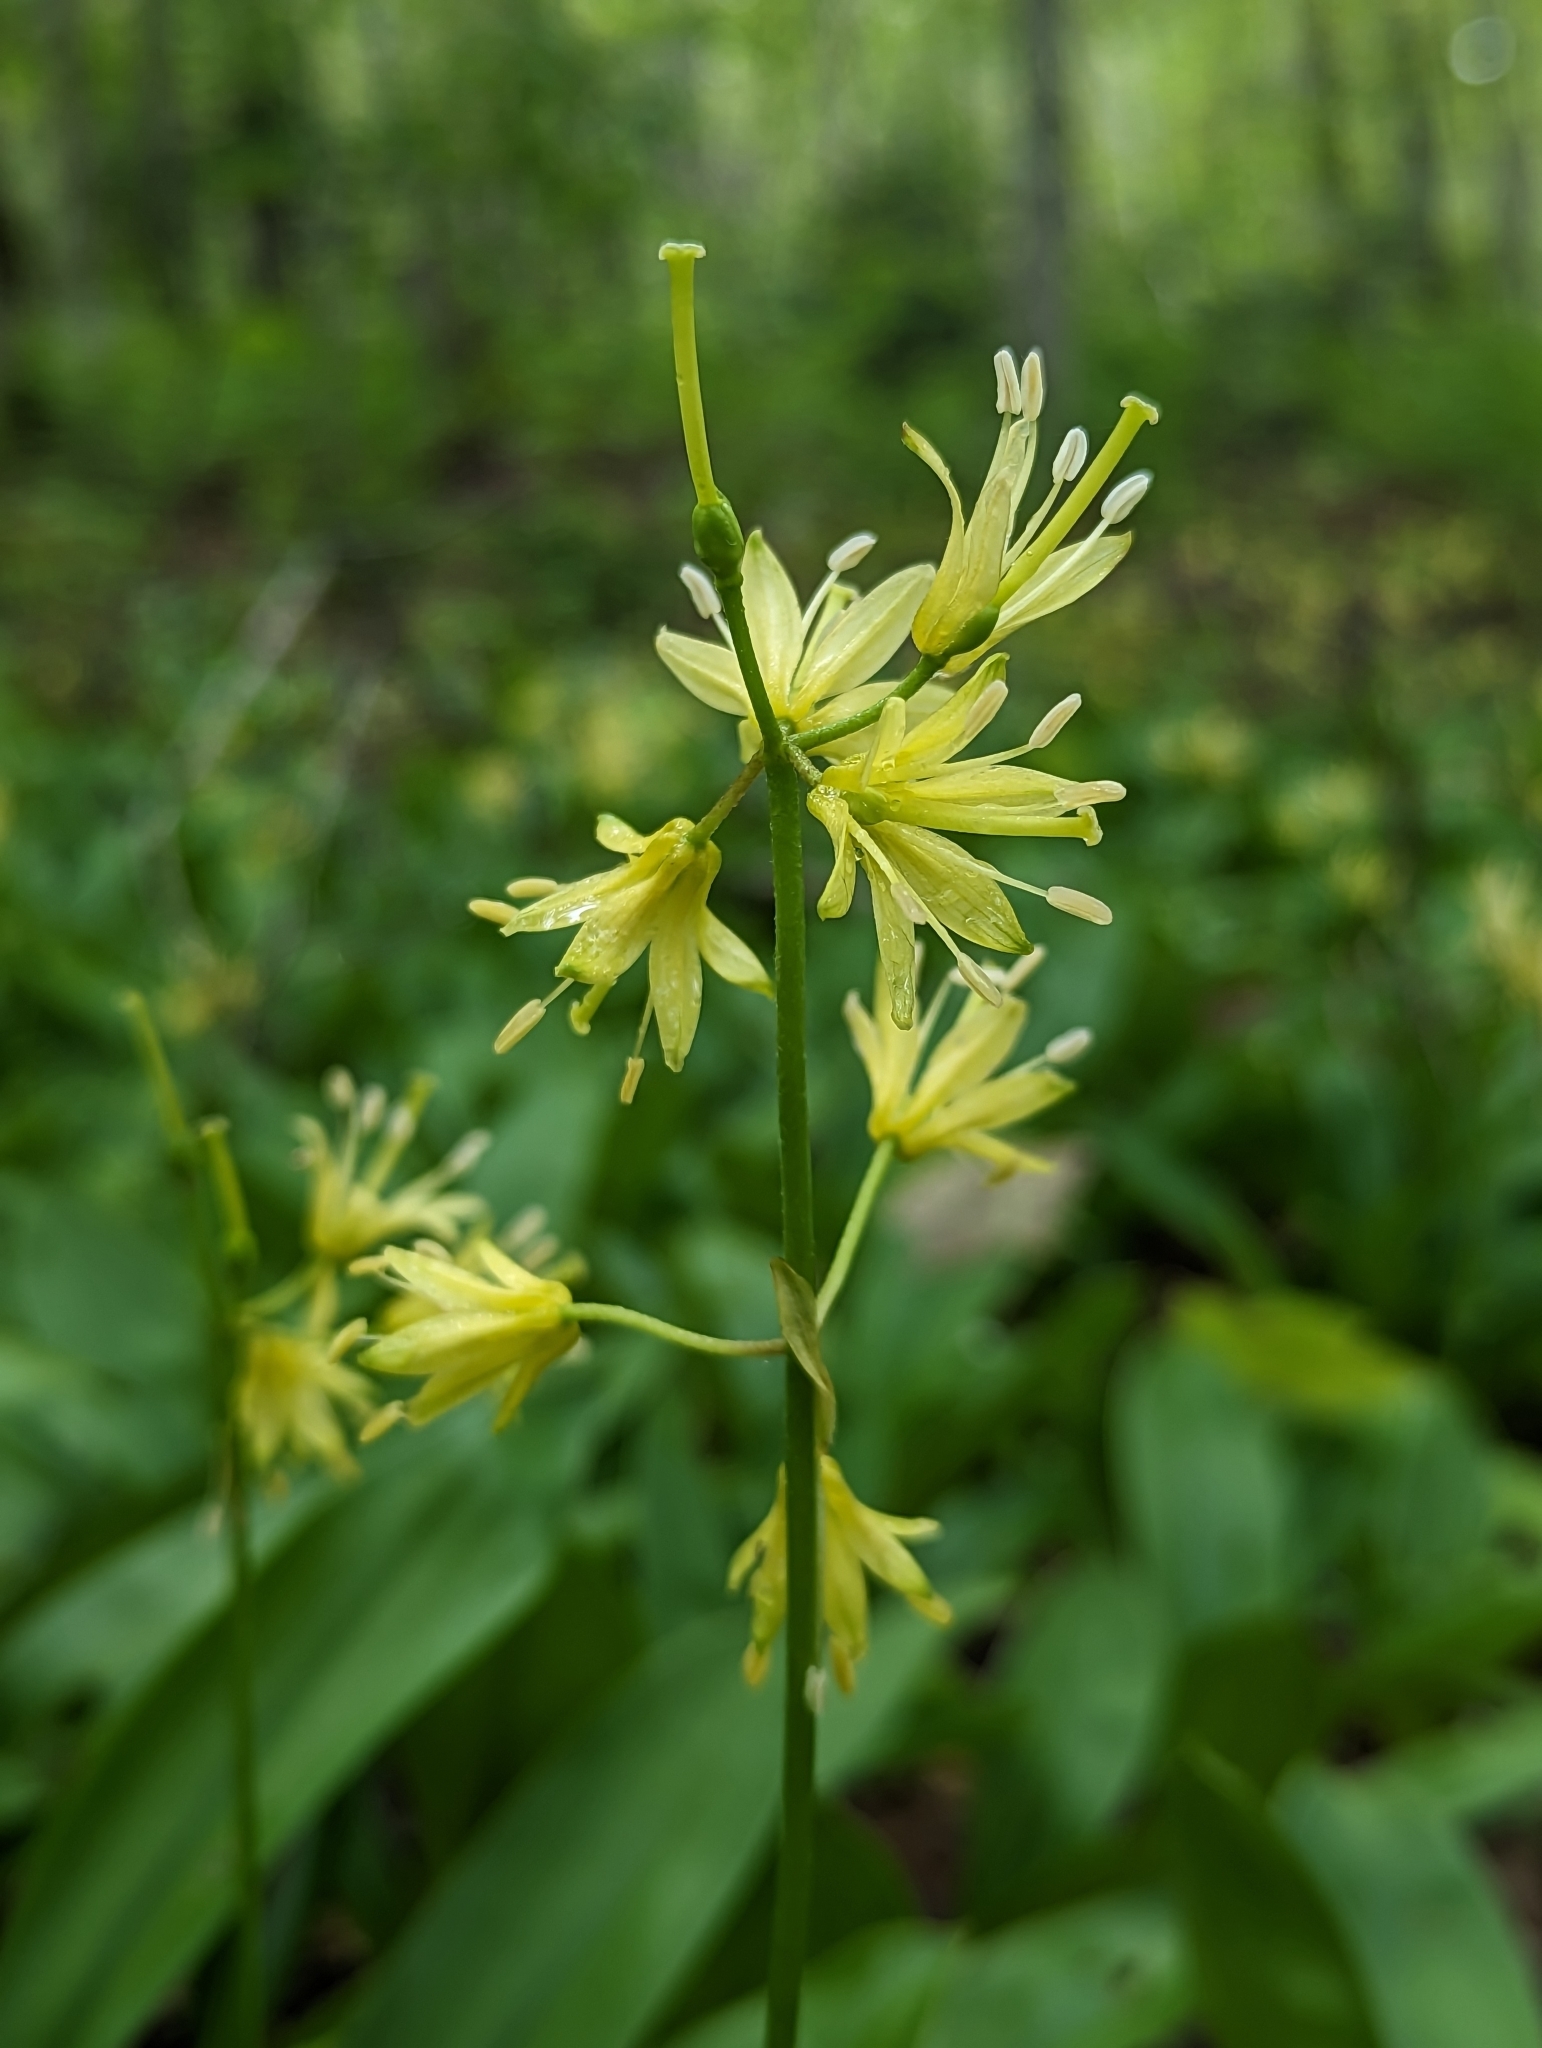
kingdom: Plantae
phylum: Tracheophyta
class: Liliopsida
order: Liliales
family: Liliaceae
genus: Clintonia
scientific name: Clintonia borealis
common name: Yellow clintonia
